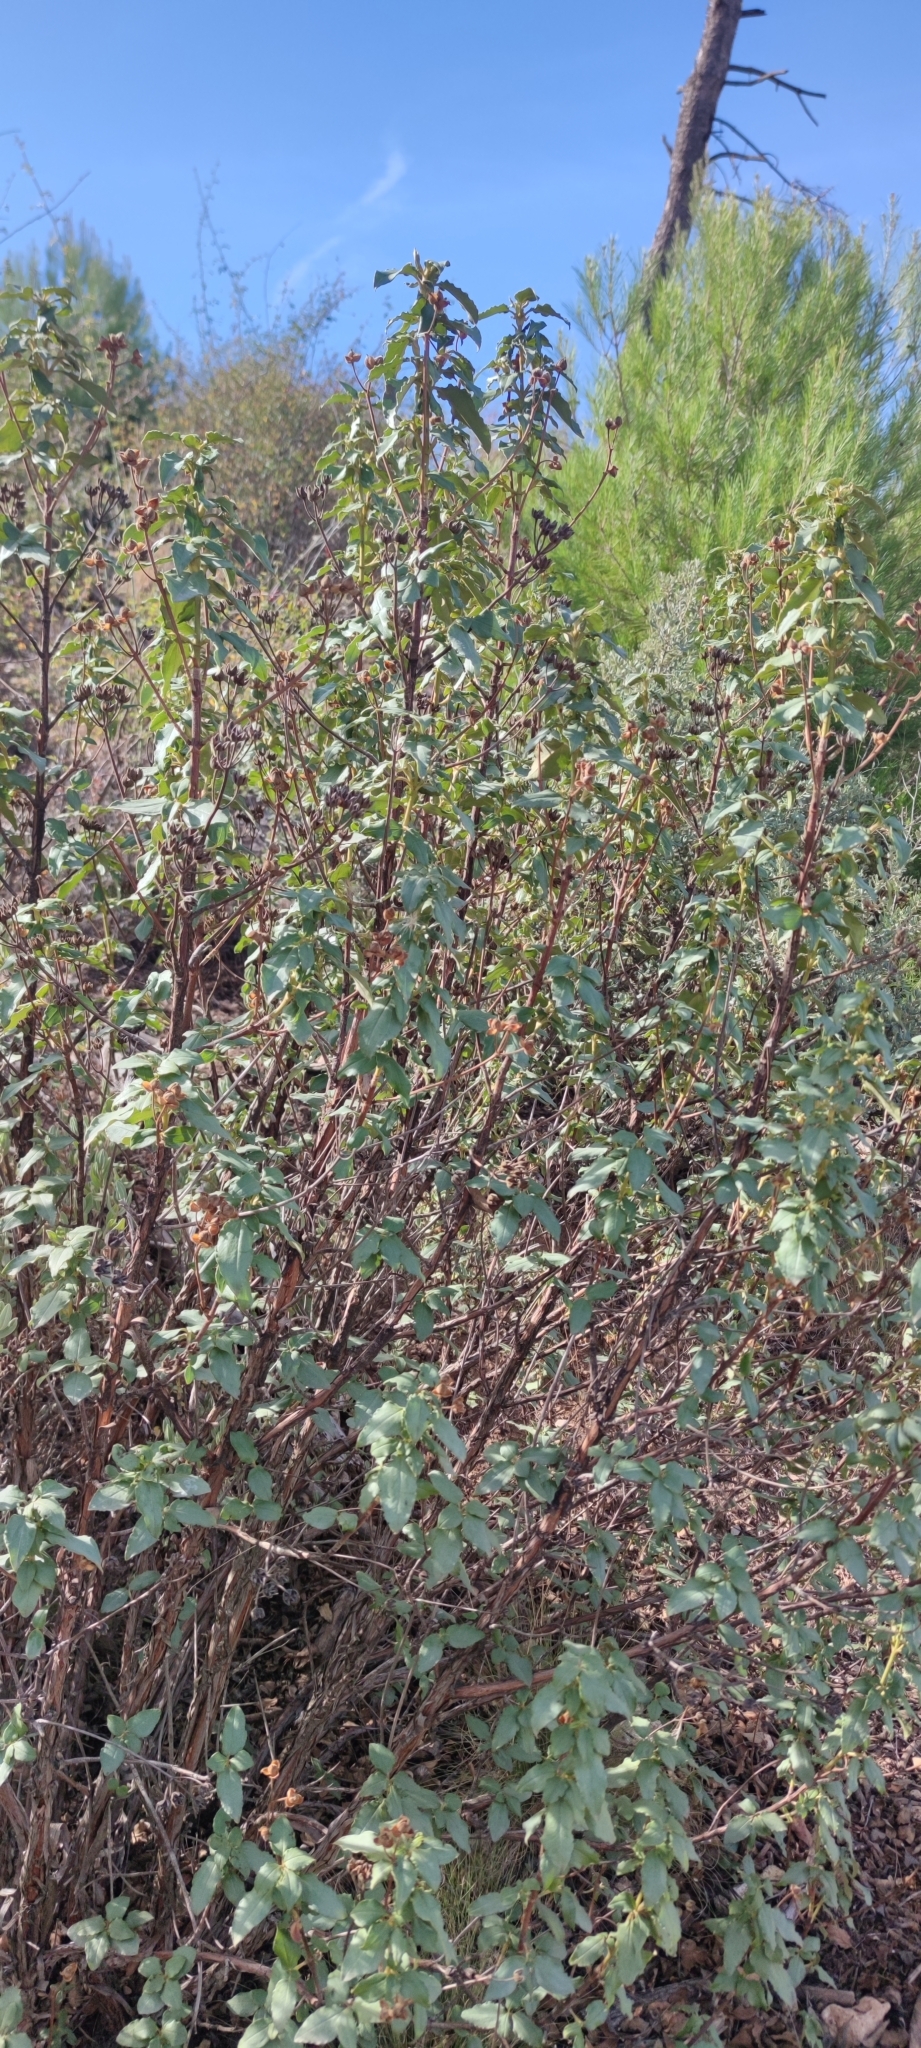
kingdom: Plantae
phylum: Tracheophyta
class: Magnoliopsida
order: Malvales
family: Cistaceae
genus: Cistus
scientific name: Cistus laurifolius
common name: Laurel-leaved cistus
